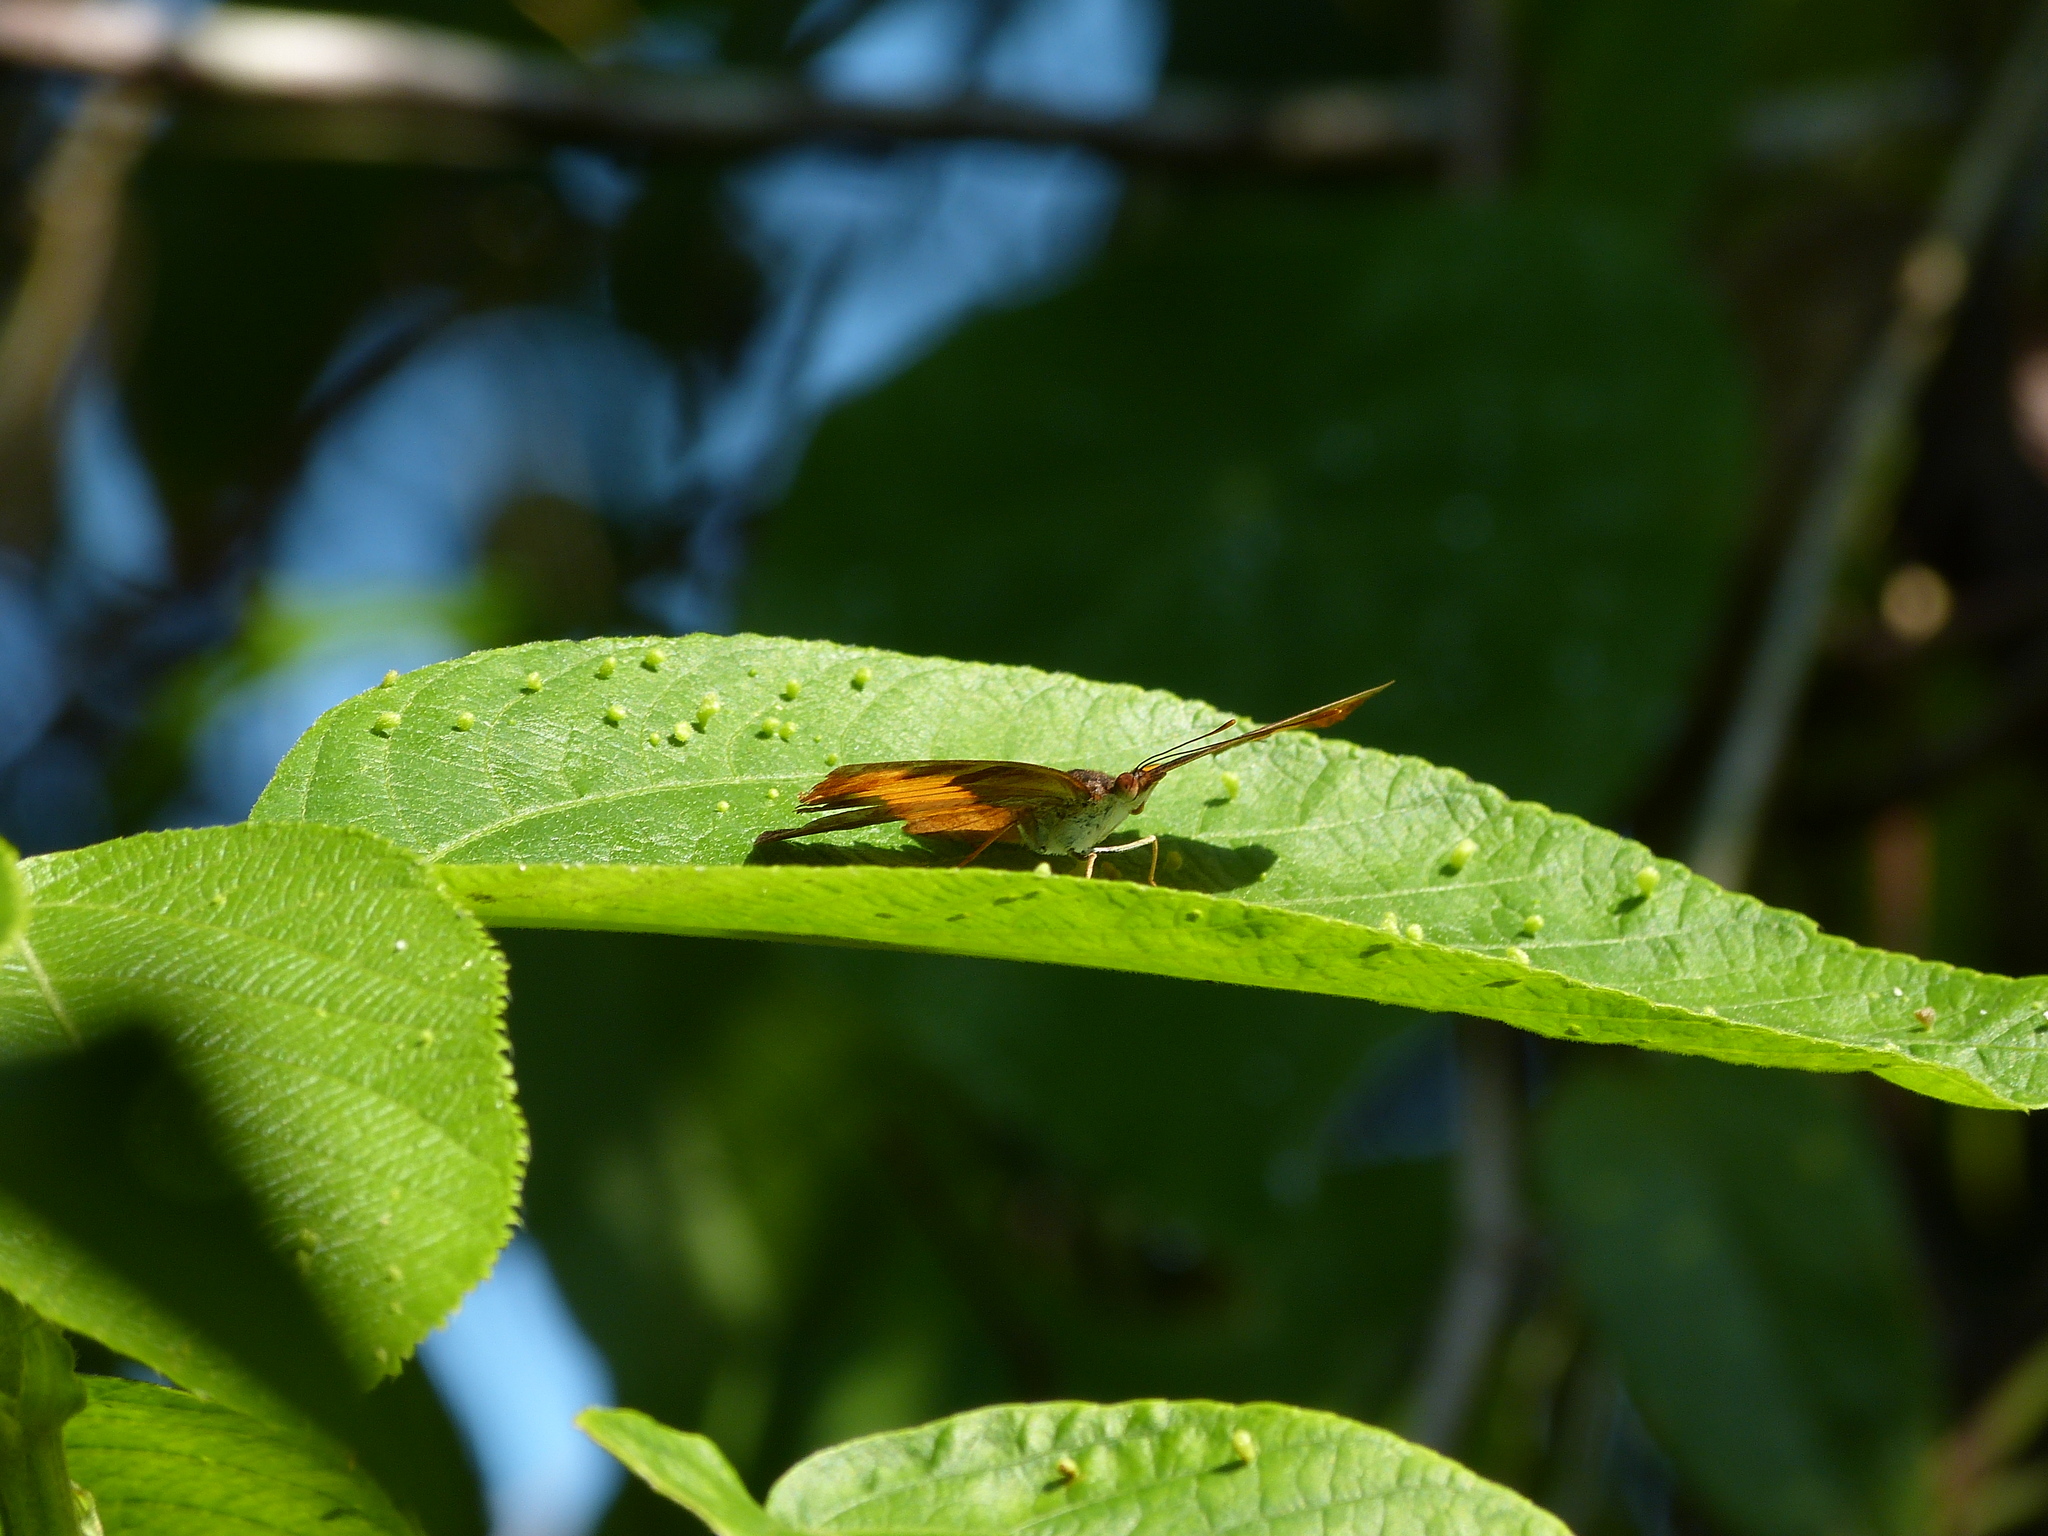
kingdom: Animalia
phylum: Arthropoda
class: Insecta
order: Lepidoptera
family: Nymphalidae
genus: Catonephele
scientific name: Catonephele mexicana
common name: Guatemalan catone
